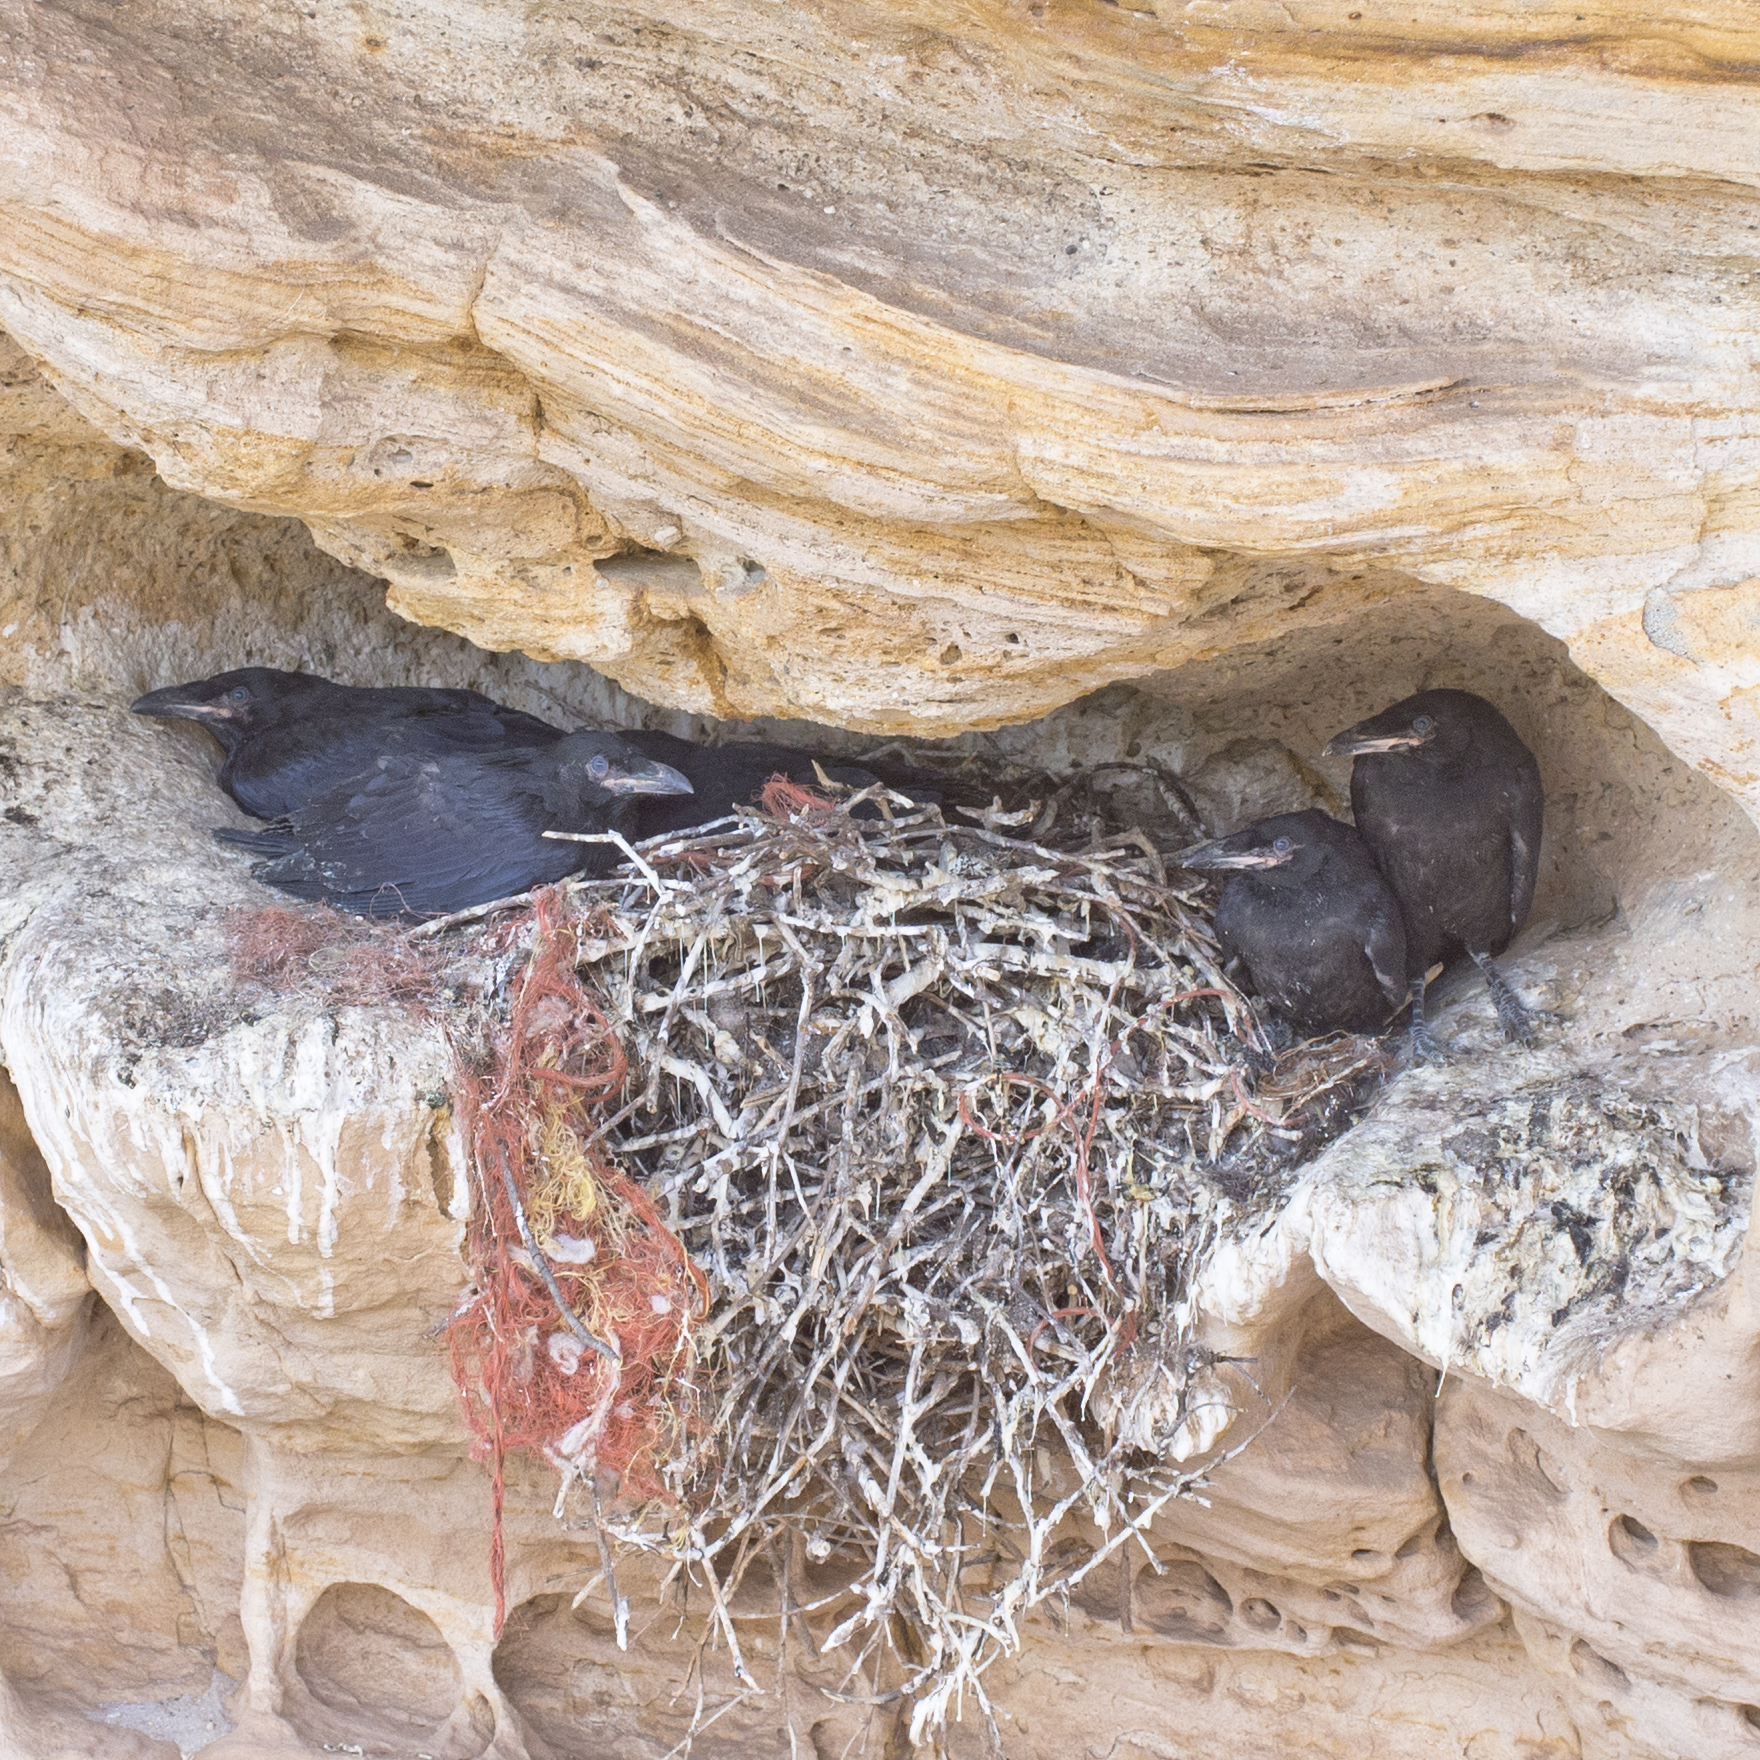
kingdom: Animalia
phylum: Chordata
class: Aves
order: Passeriformes
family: Corvidae
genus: Corvus
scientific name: Corvus corax
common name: Common raven
